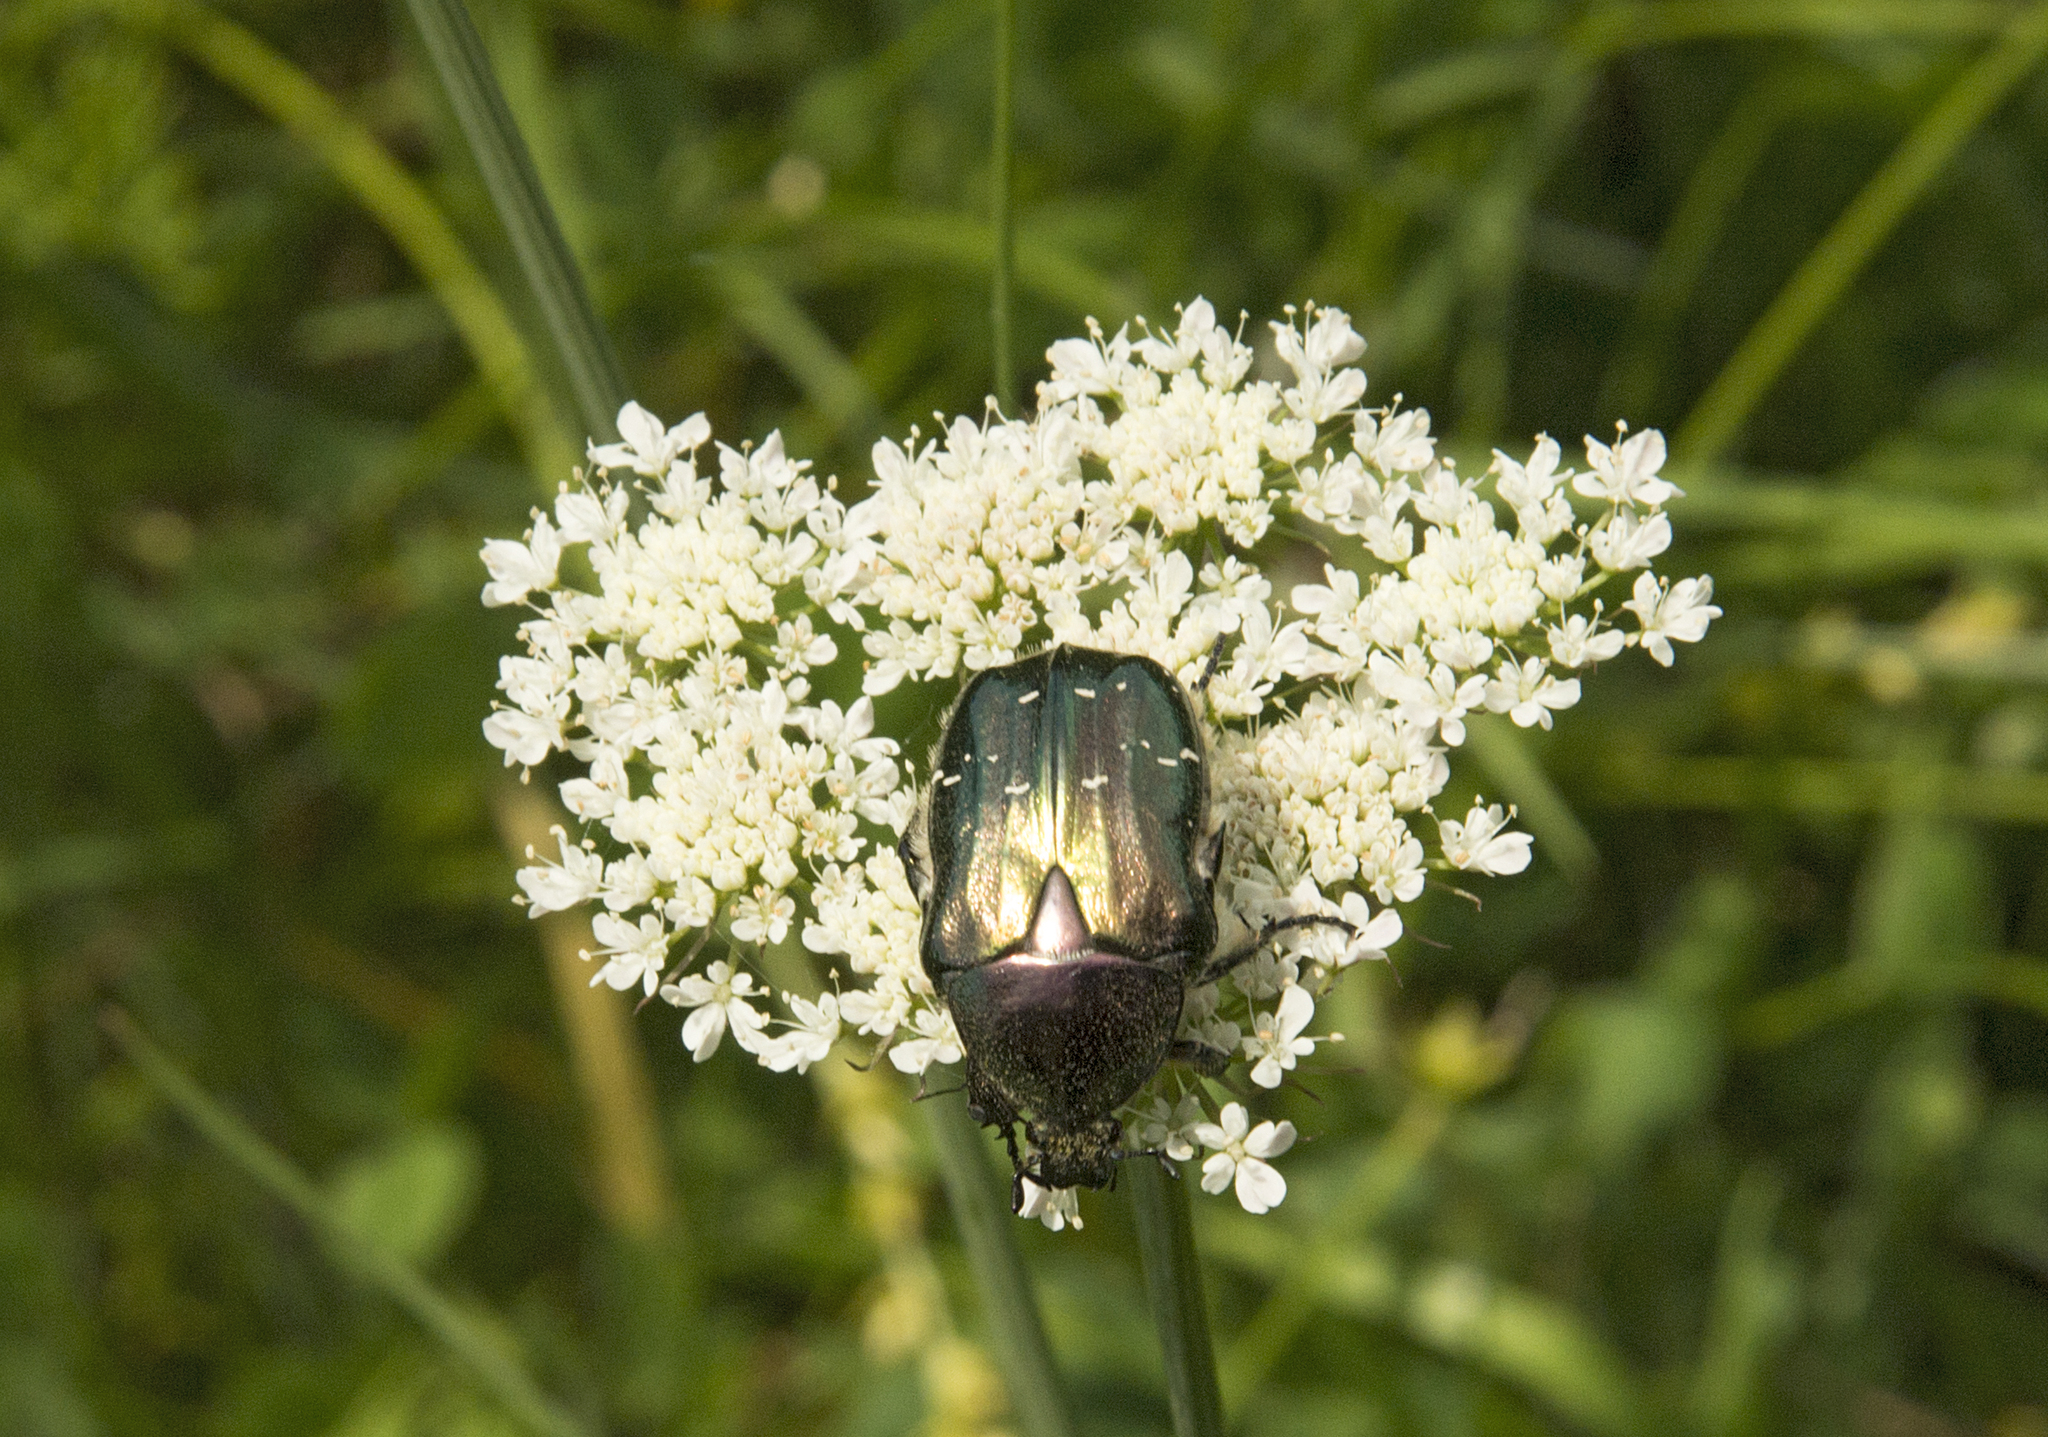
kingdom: Animalia
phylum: Arthropoda
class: Insecta
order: Coleoptera
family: Scarabaeidae
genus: Cetonia
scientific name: Cetonia aurata
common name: Rose chafer
